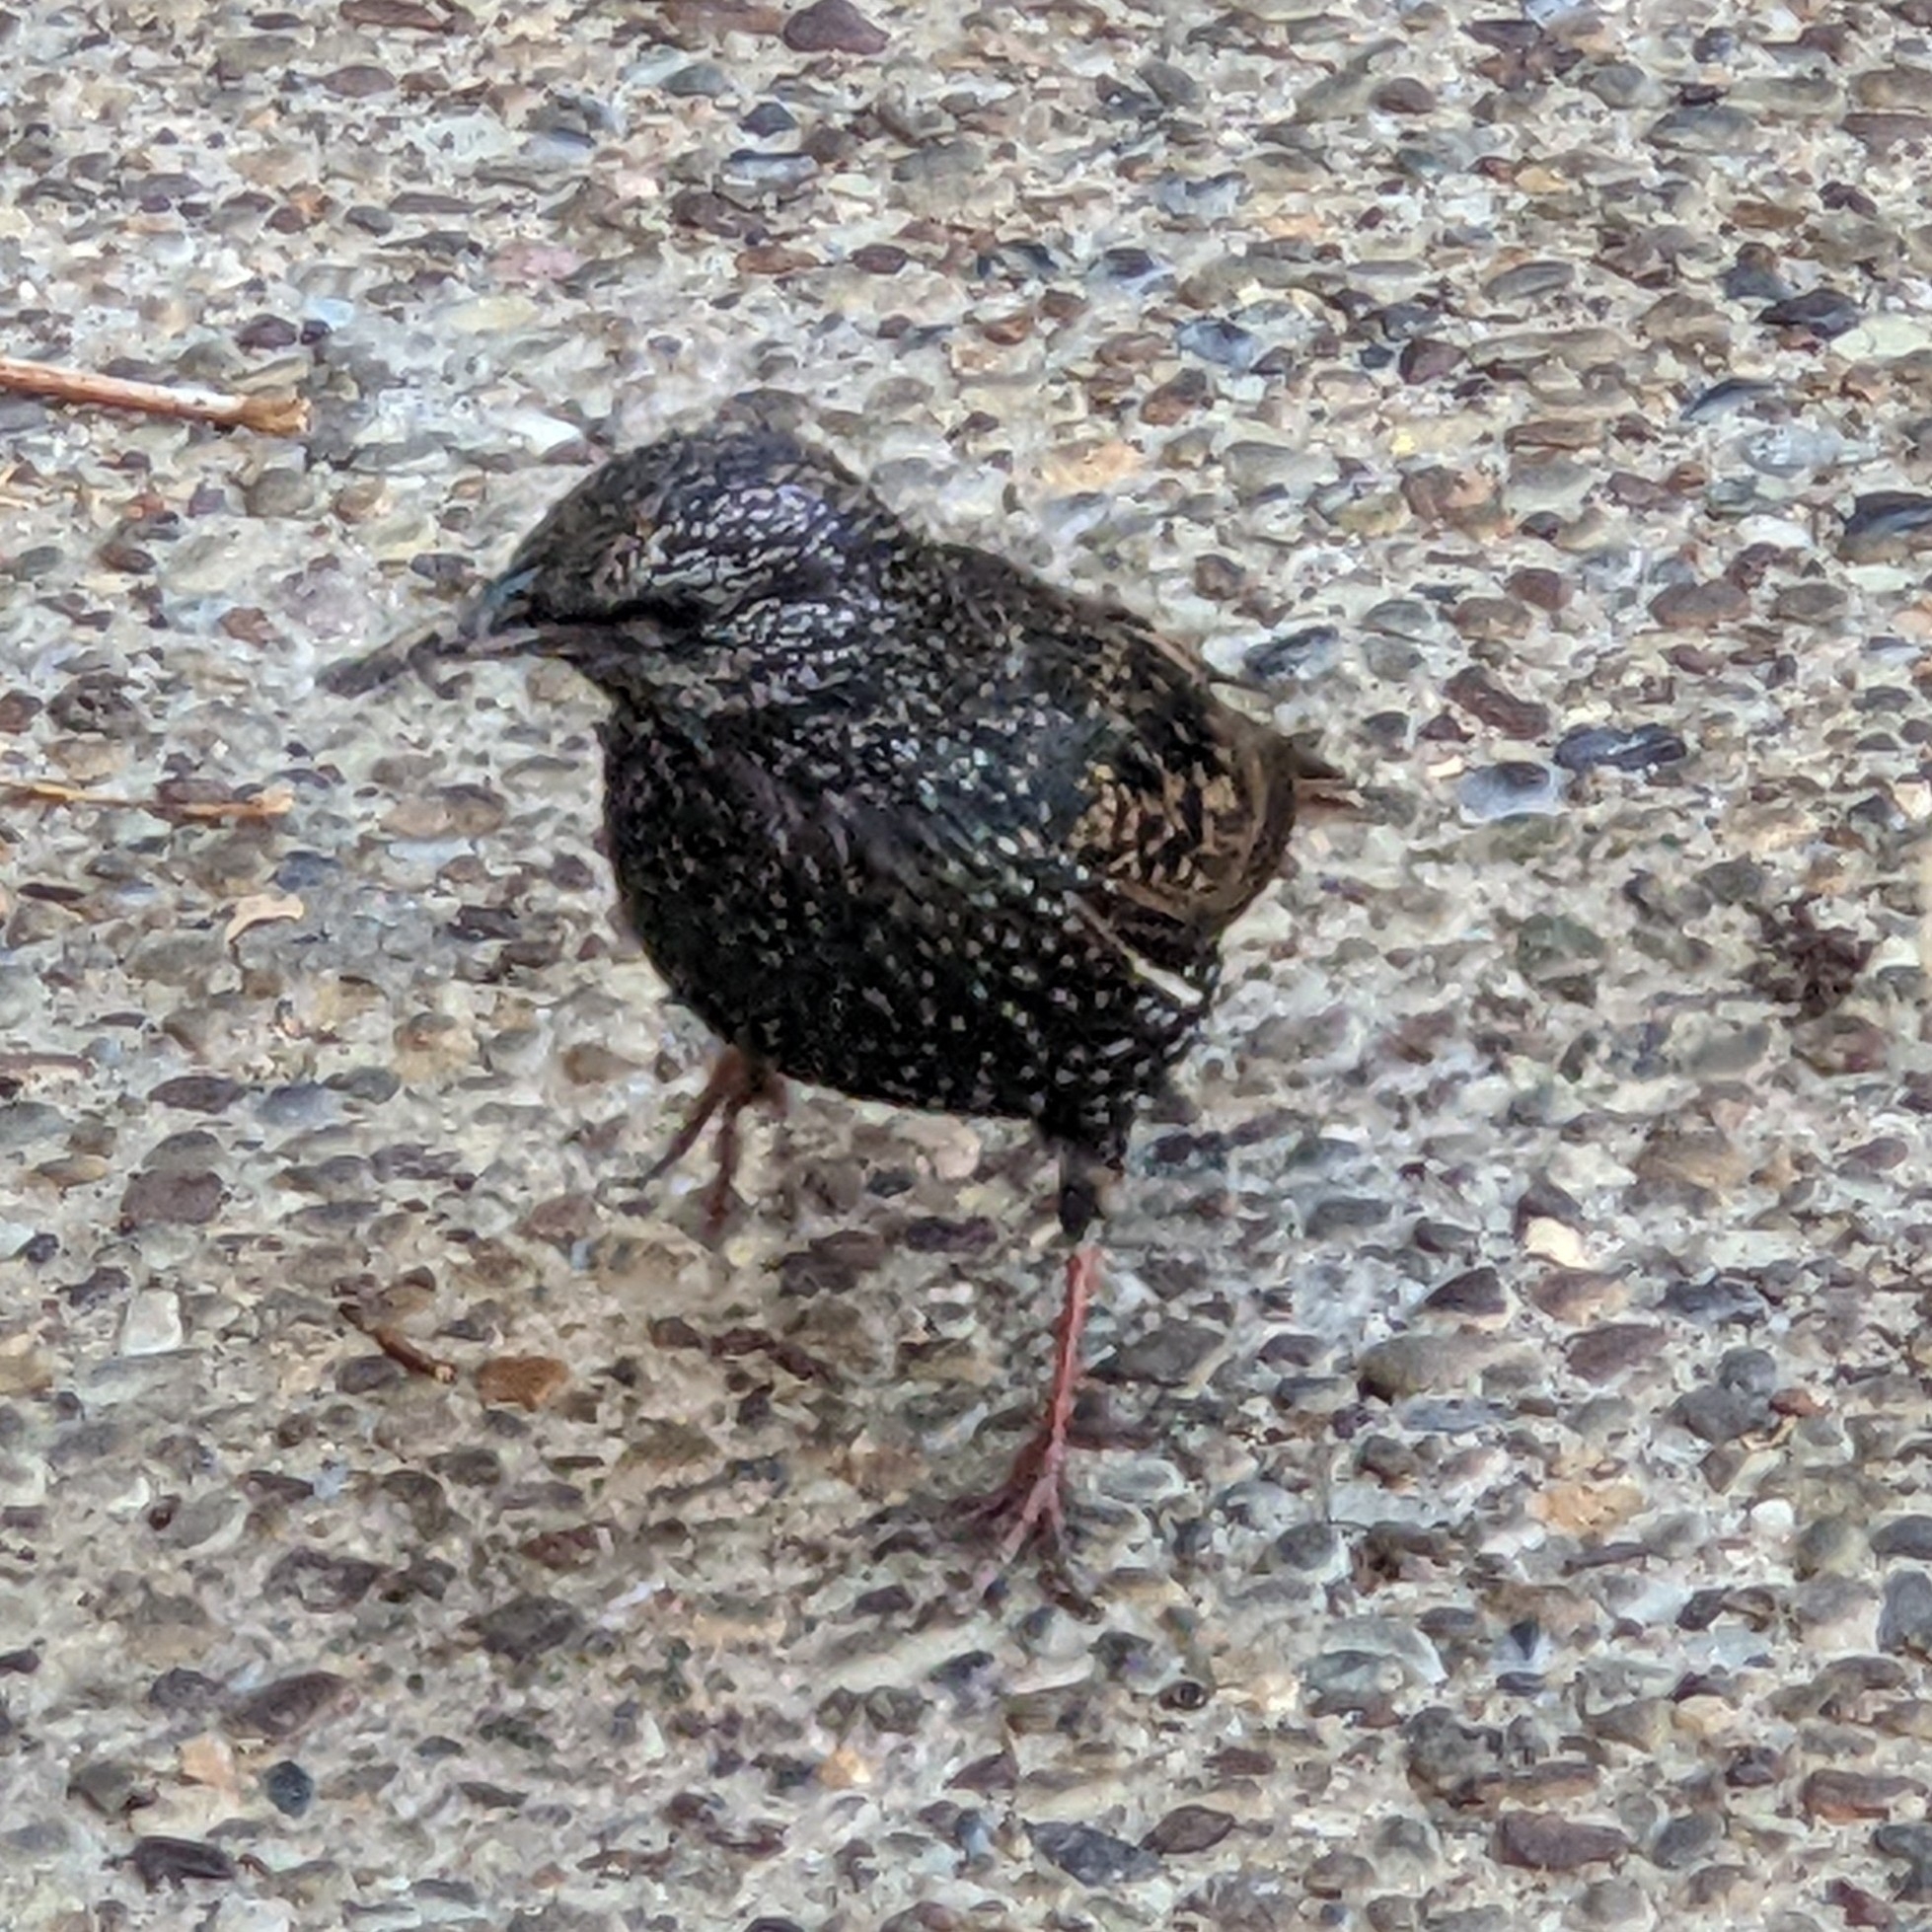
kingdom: Animalia
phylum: Chordata
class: Aves
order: Passeriformes
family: Sturnidae
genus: Sturnus
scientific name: Sturnus vulgaris
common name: Common starling
